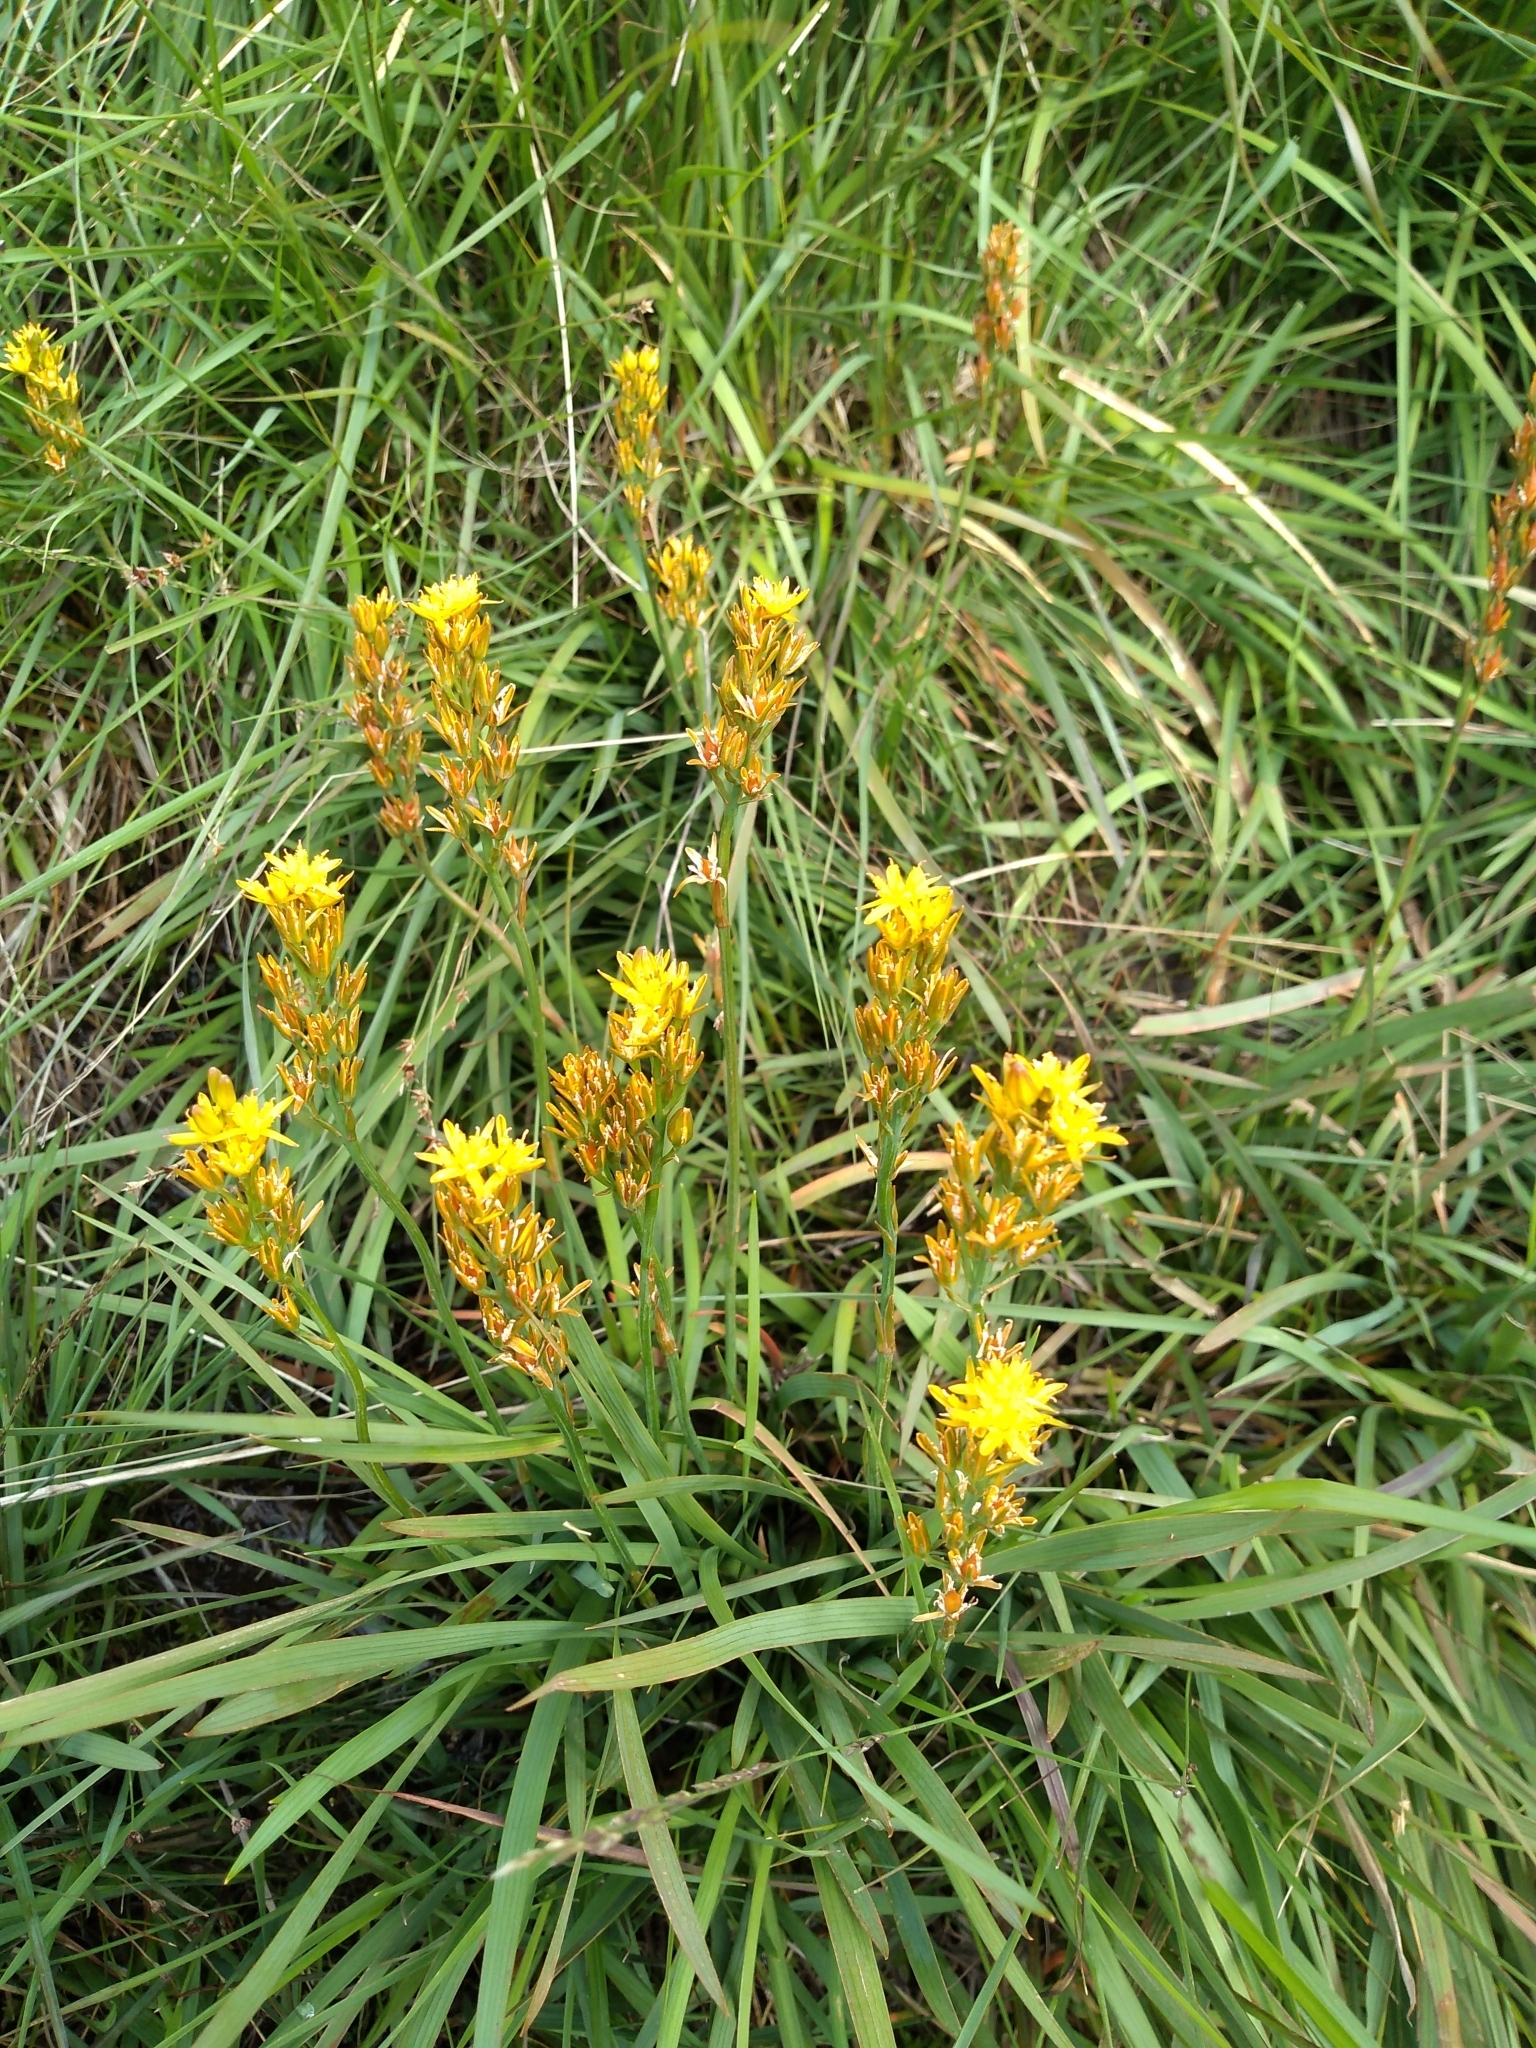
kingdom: Plantae
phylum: Tracheophyta
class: Liliopsida
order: Dioscoreales
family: Nartheciaceae
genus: Narthecium
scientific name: Narthecium ossifragum
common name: Bog asphodel
